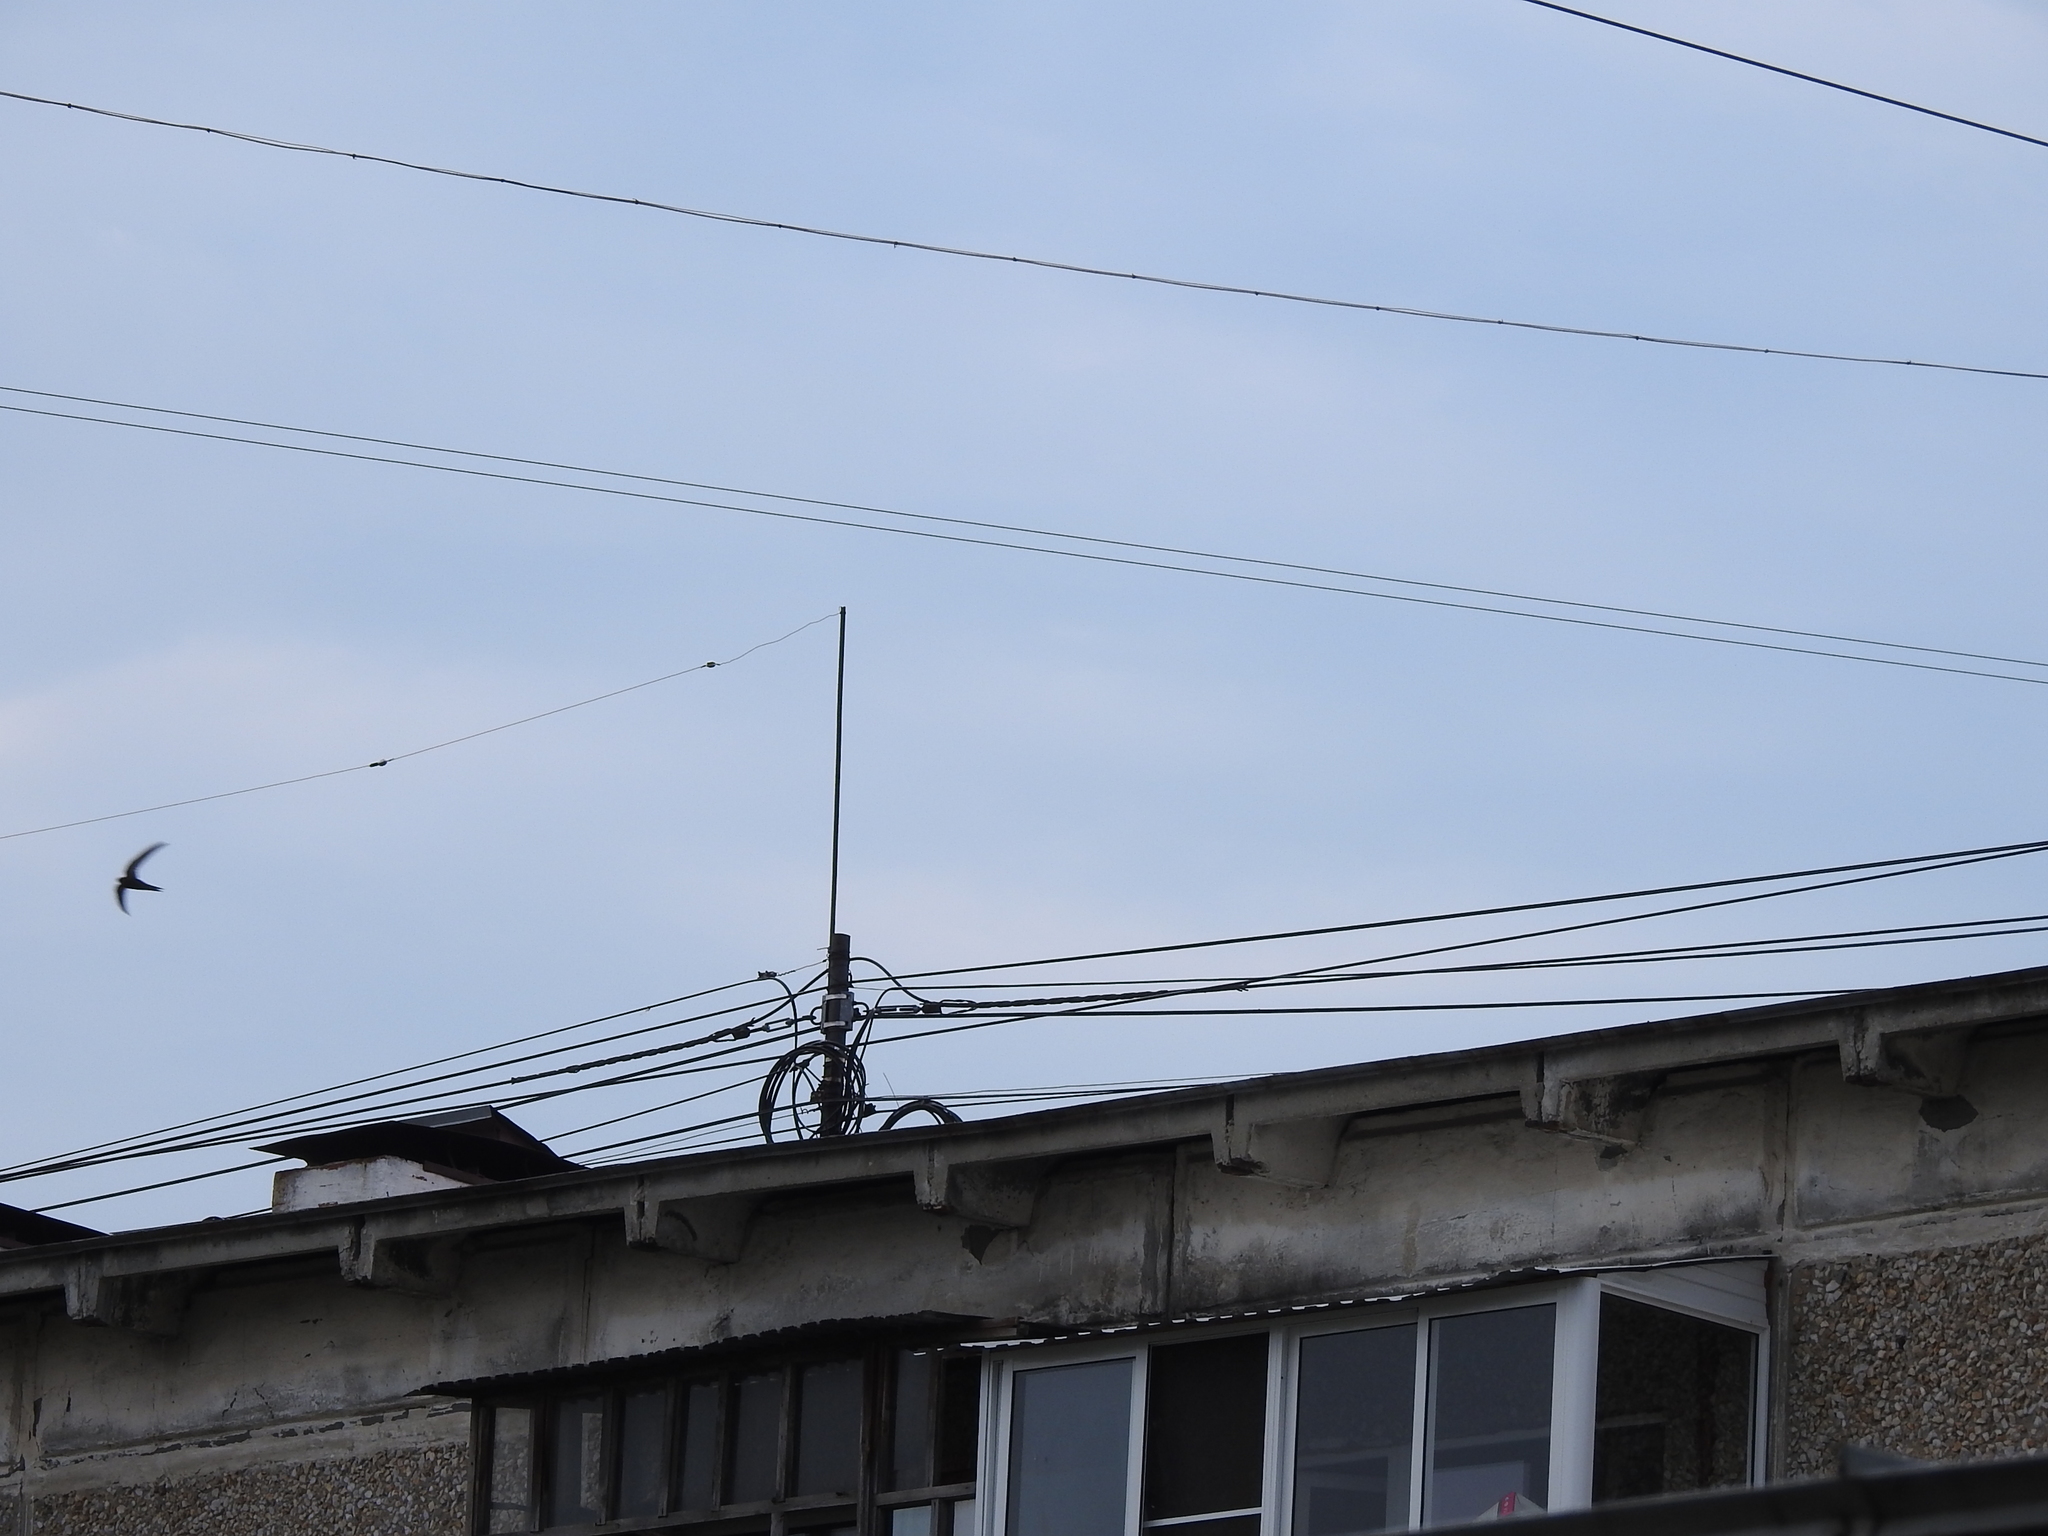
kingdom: Animalia
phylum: Chordata
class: Aves
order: Apodiformes
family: Apodidae
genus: Apus
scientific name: Apus apus
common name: Common swift
